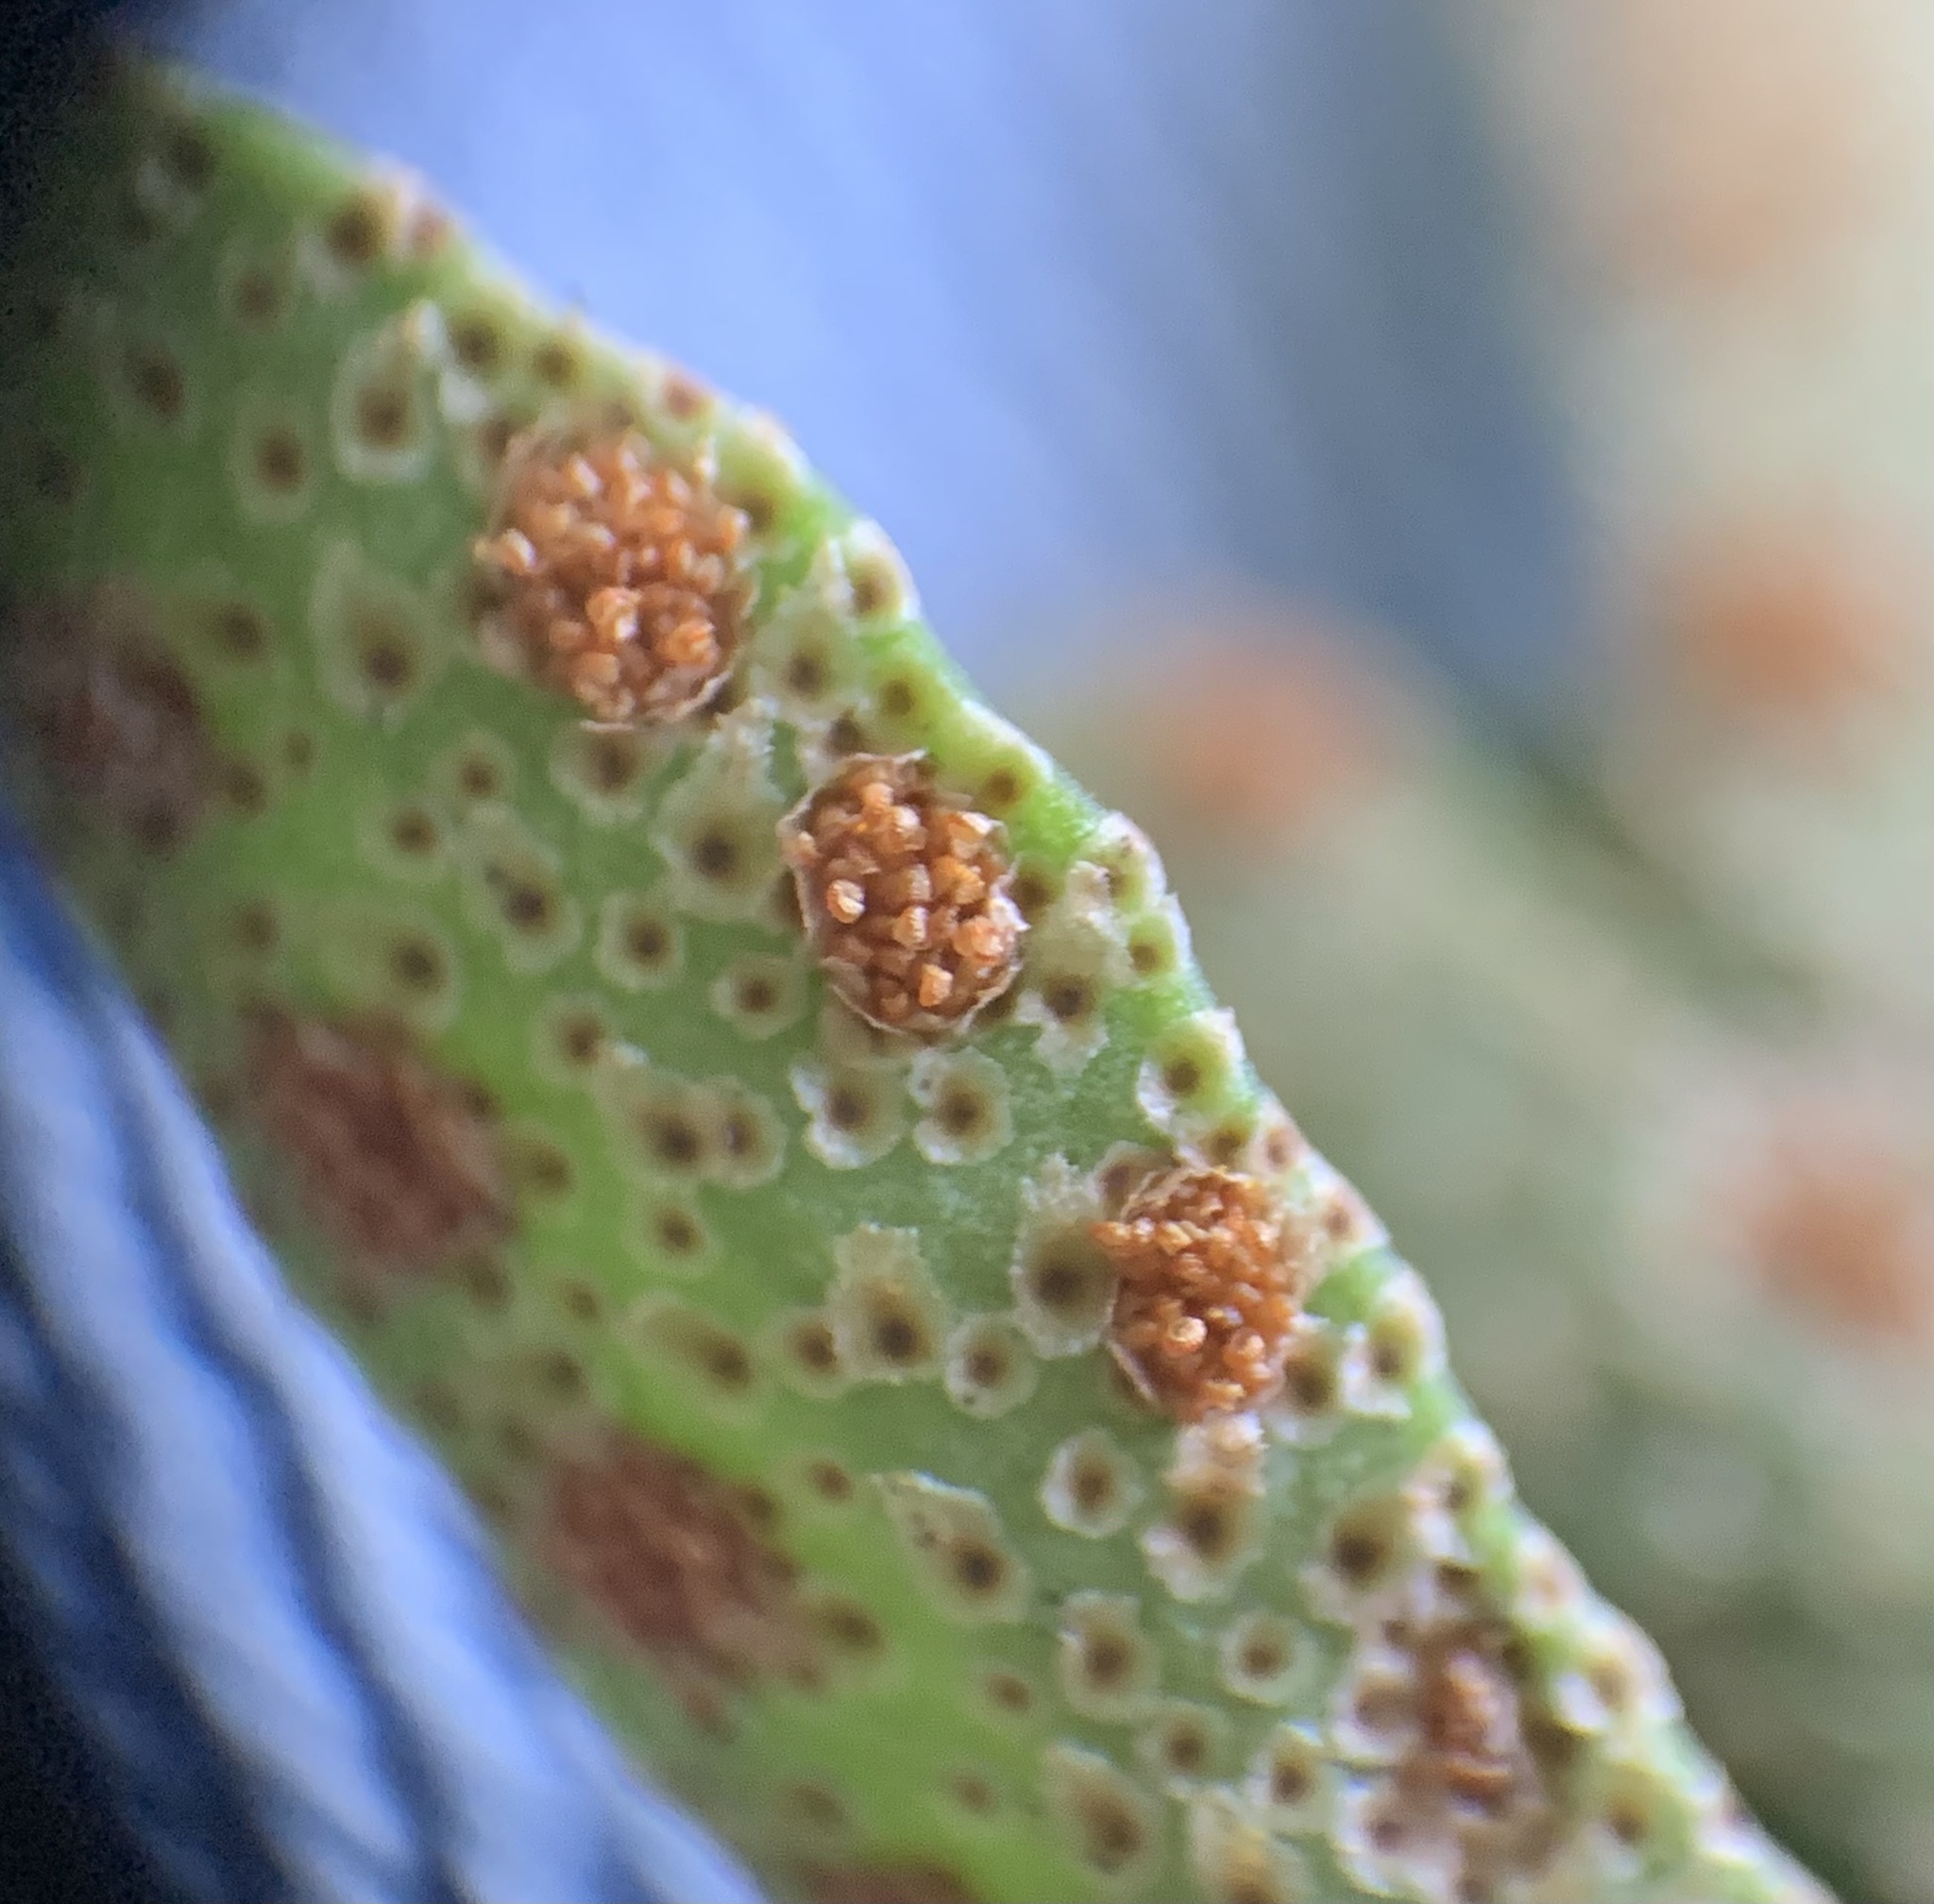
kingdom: Plantae
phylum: Tracheophyta
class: Polypodiopsida
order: Polypodiales
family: Polypodiaceae
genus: Pleopeltis
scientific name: Pleopeltis michauxiana
